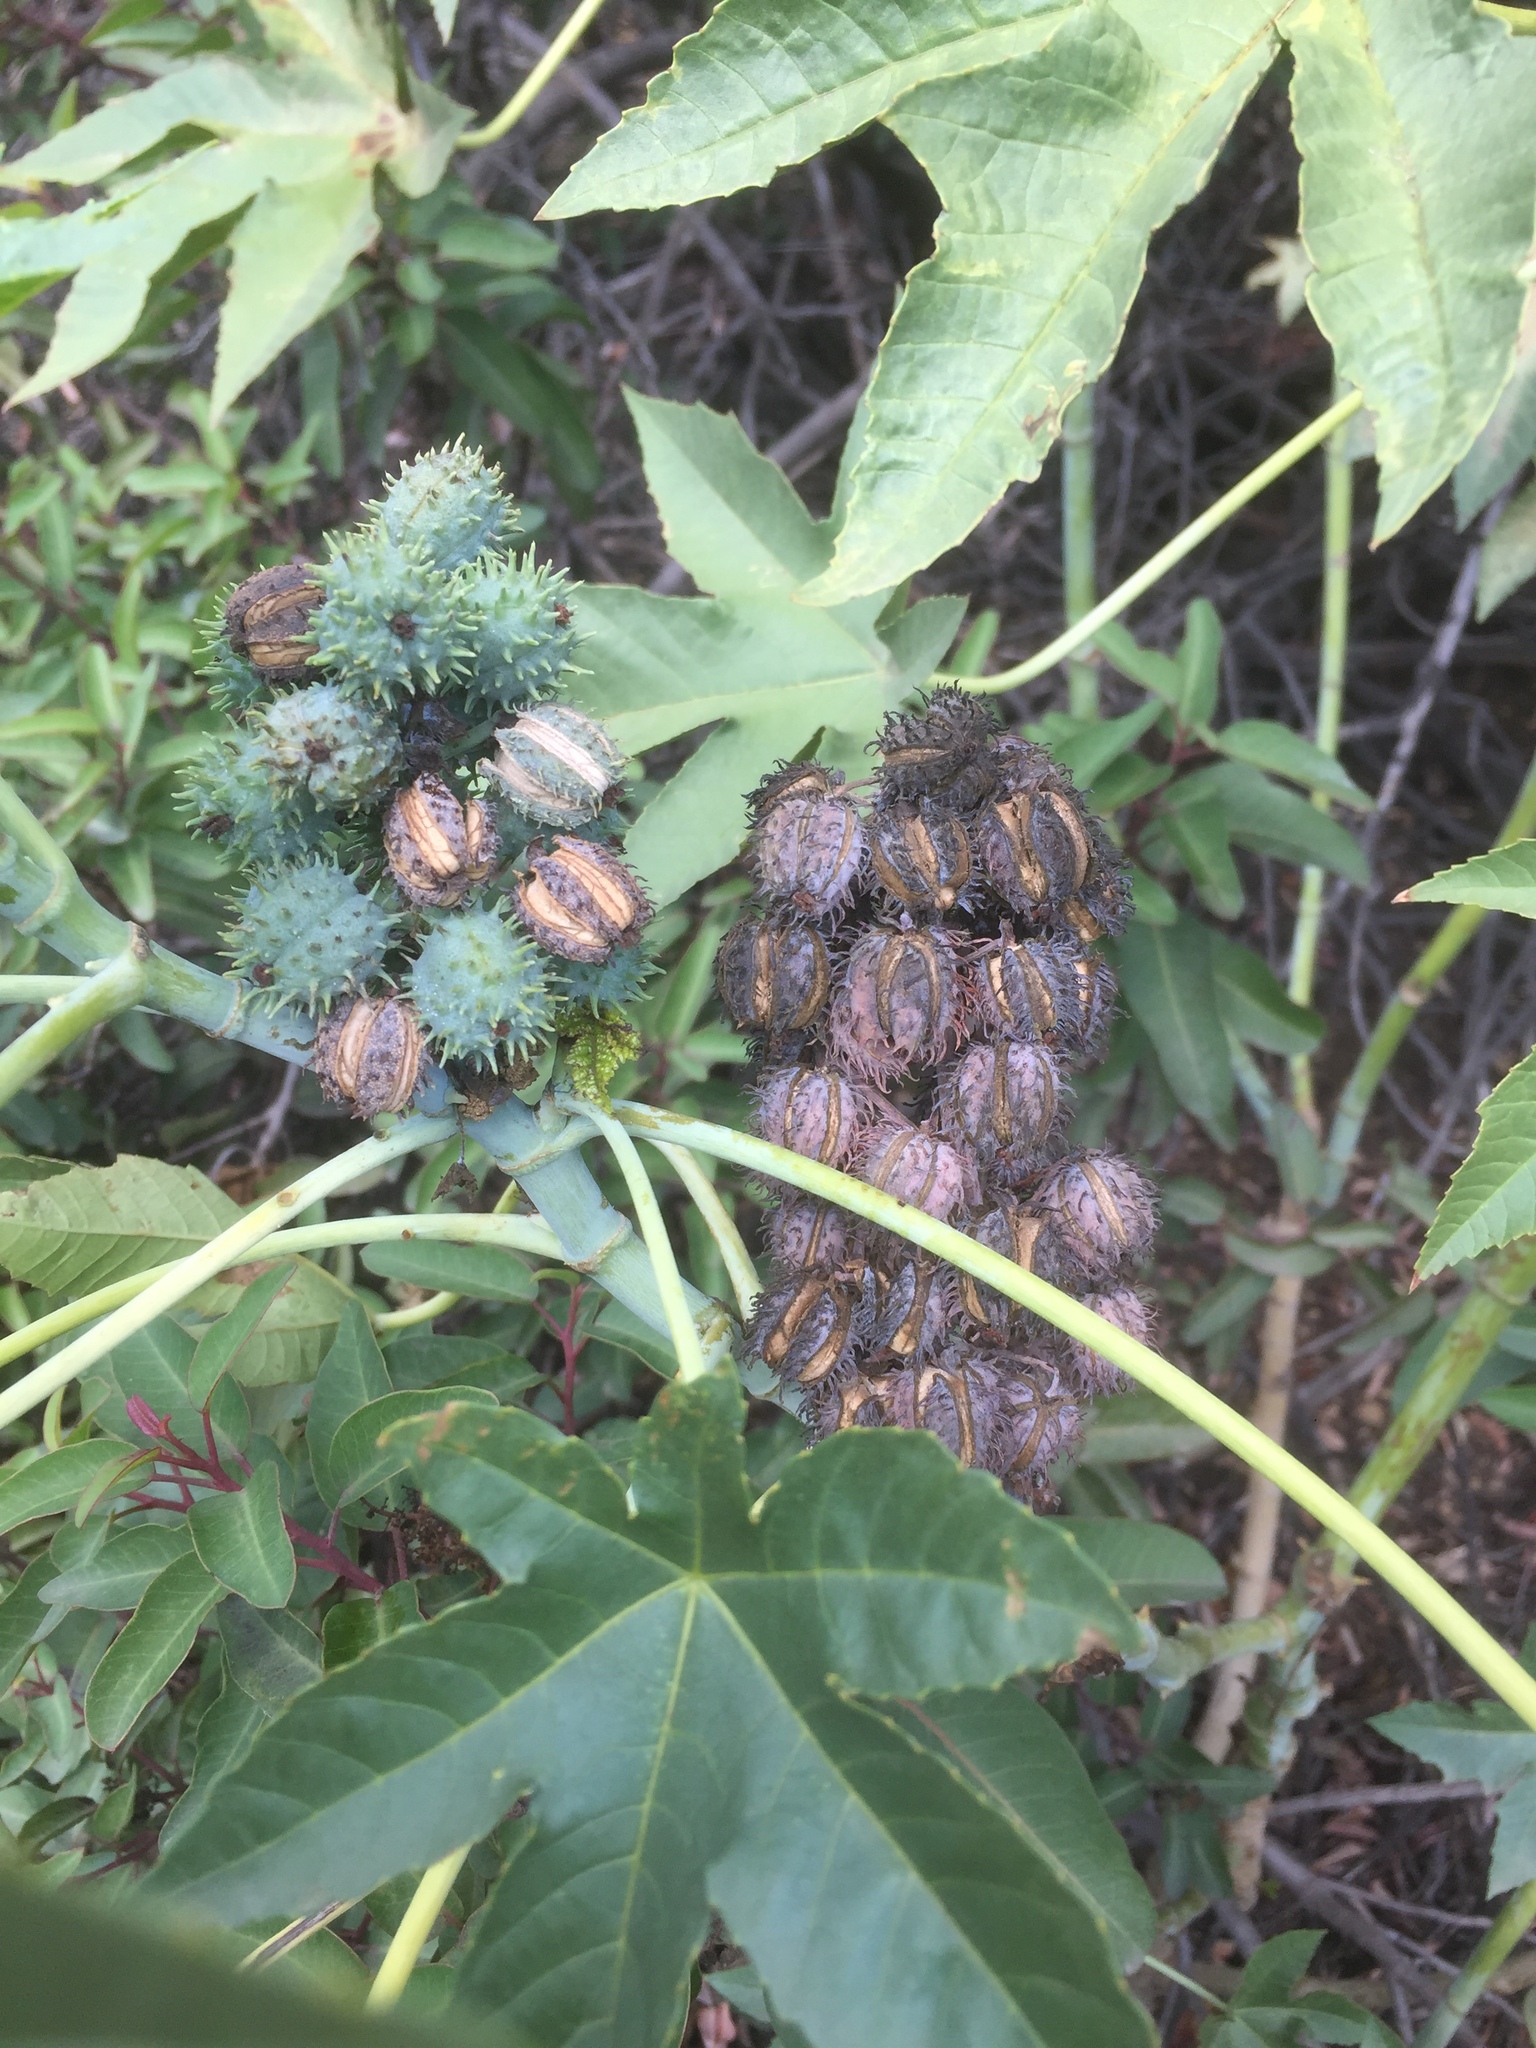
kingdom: Plantae
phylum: Tracheophyta
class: Magnoliopsida
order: Malpighiales
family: Euphorbiaceae
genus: Ricinus
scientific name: Ricinus communis
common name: Castor-oil-plant
